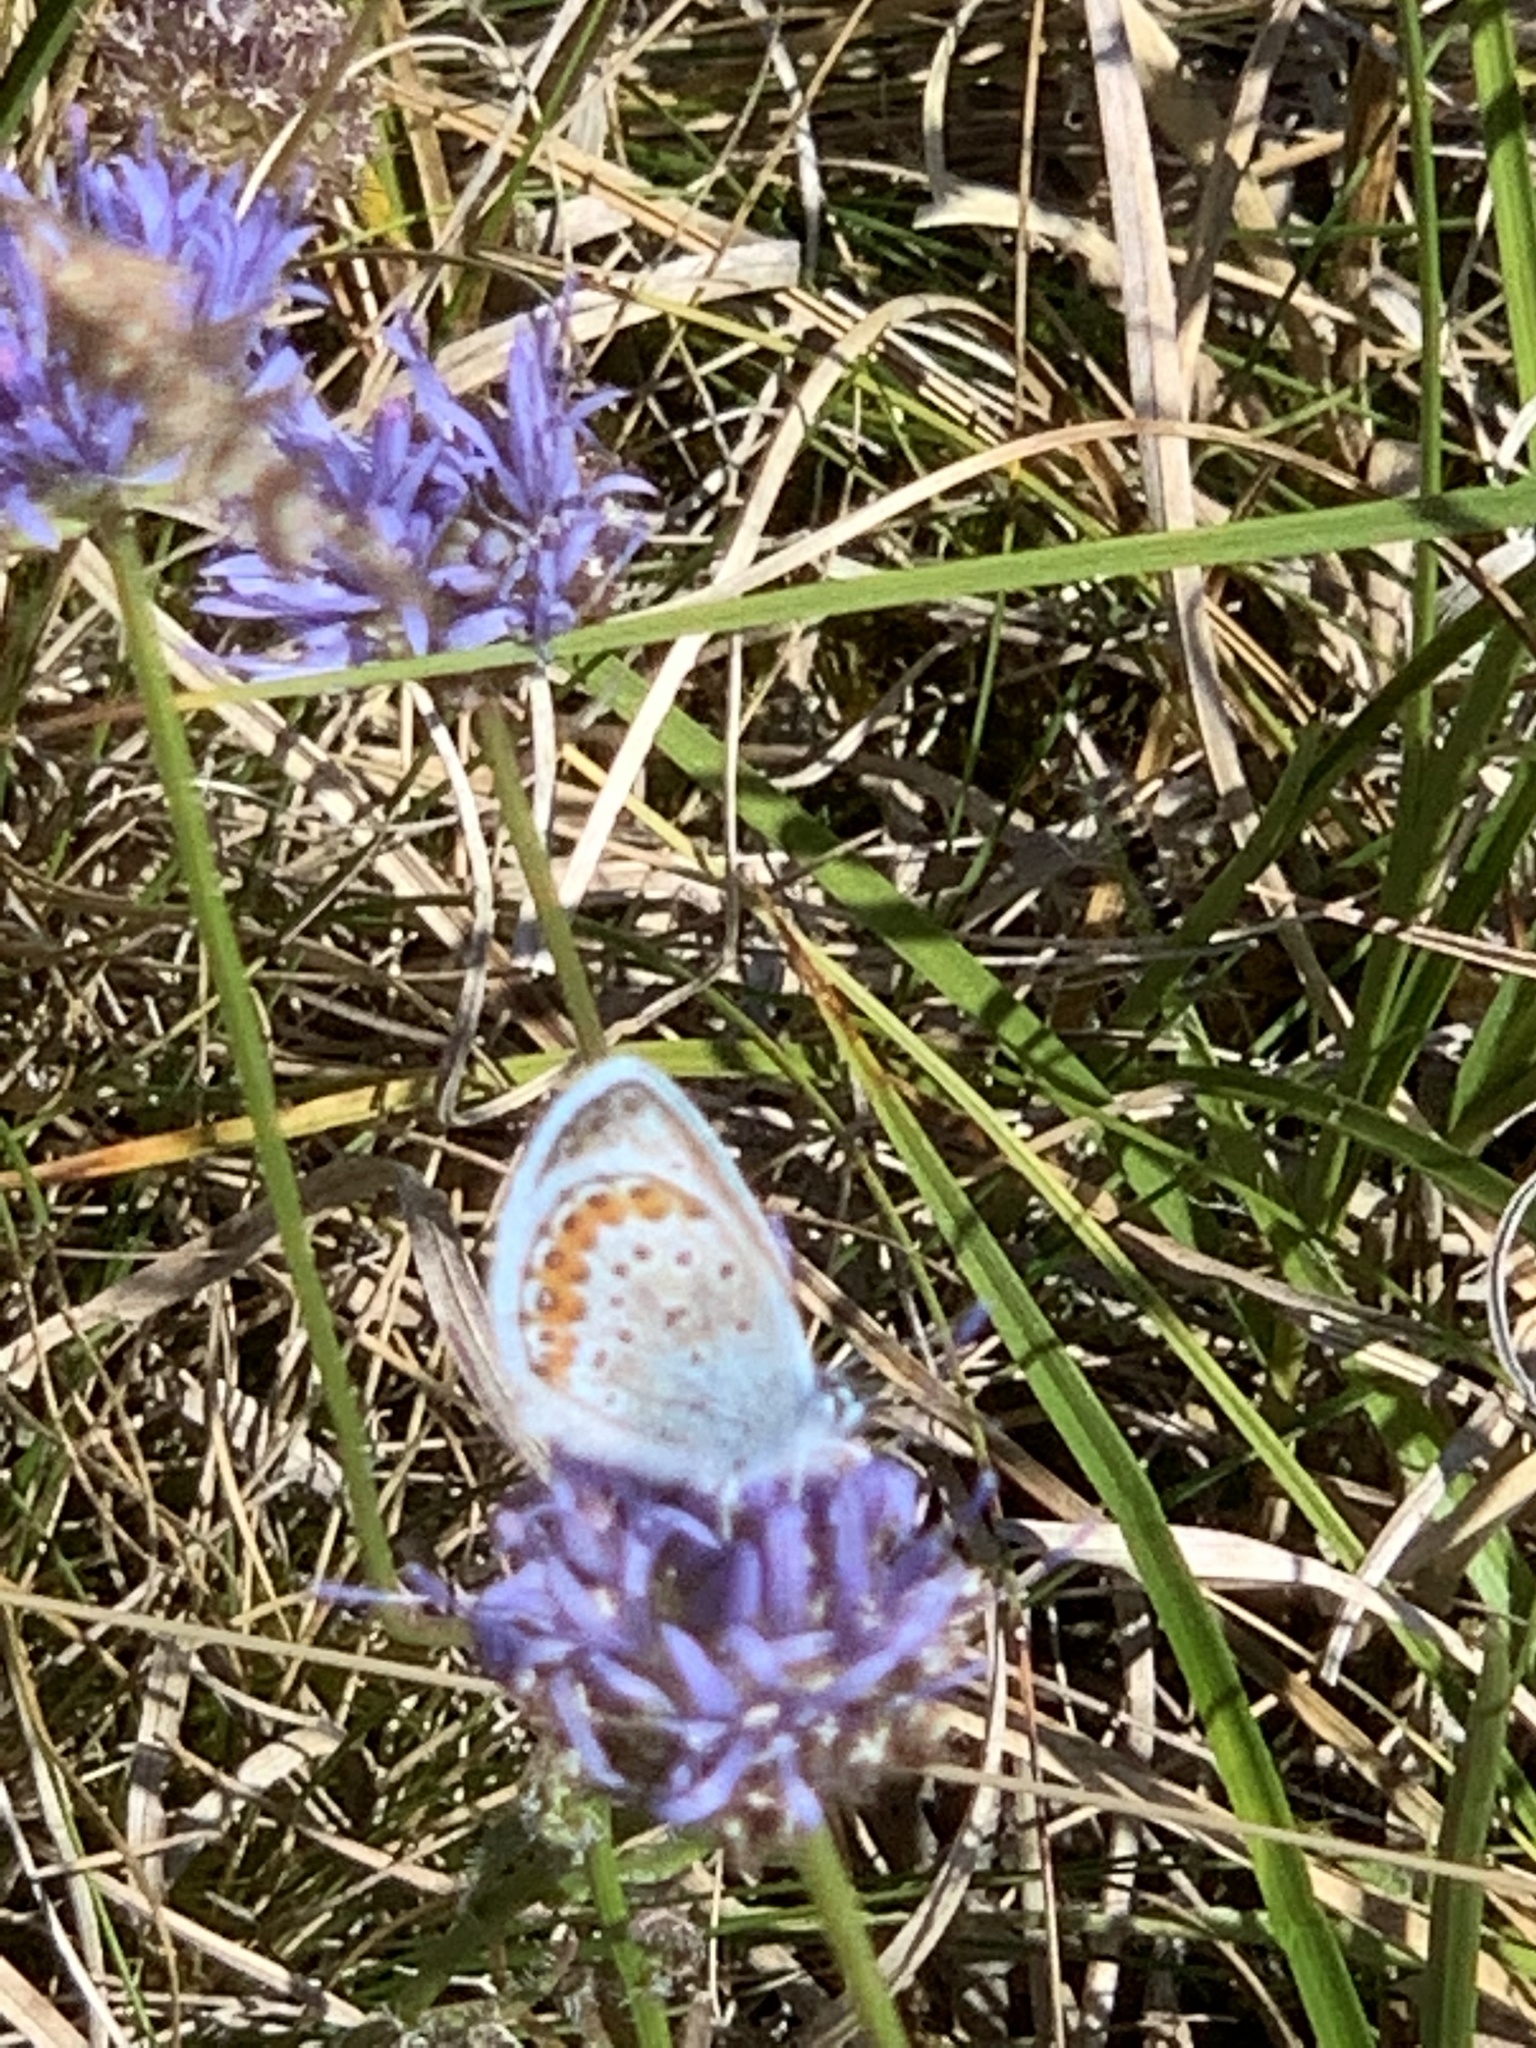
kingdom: Animalia
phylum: Arthropoda
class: Insecta
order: Lepidoptera
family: Lycaenidae
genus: Plebejus
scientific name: Plebejus argus
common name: Silver-studded blue
